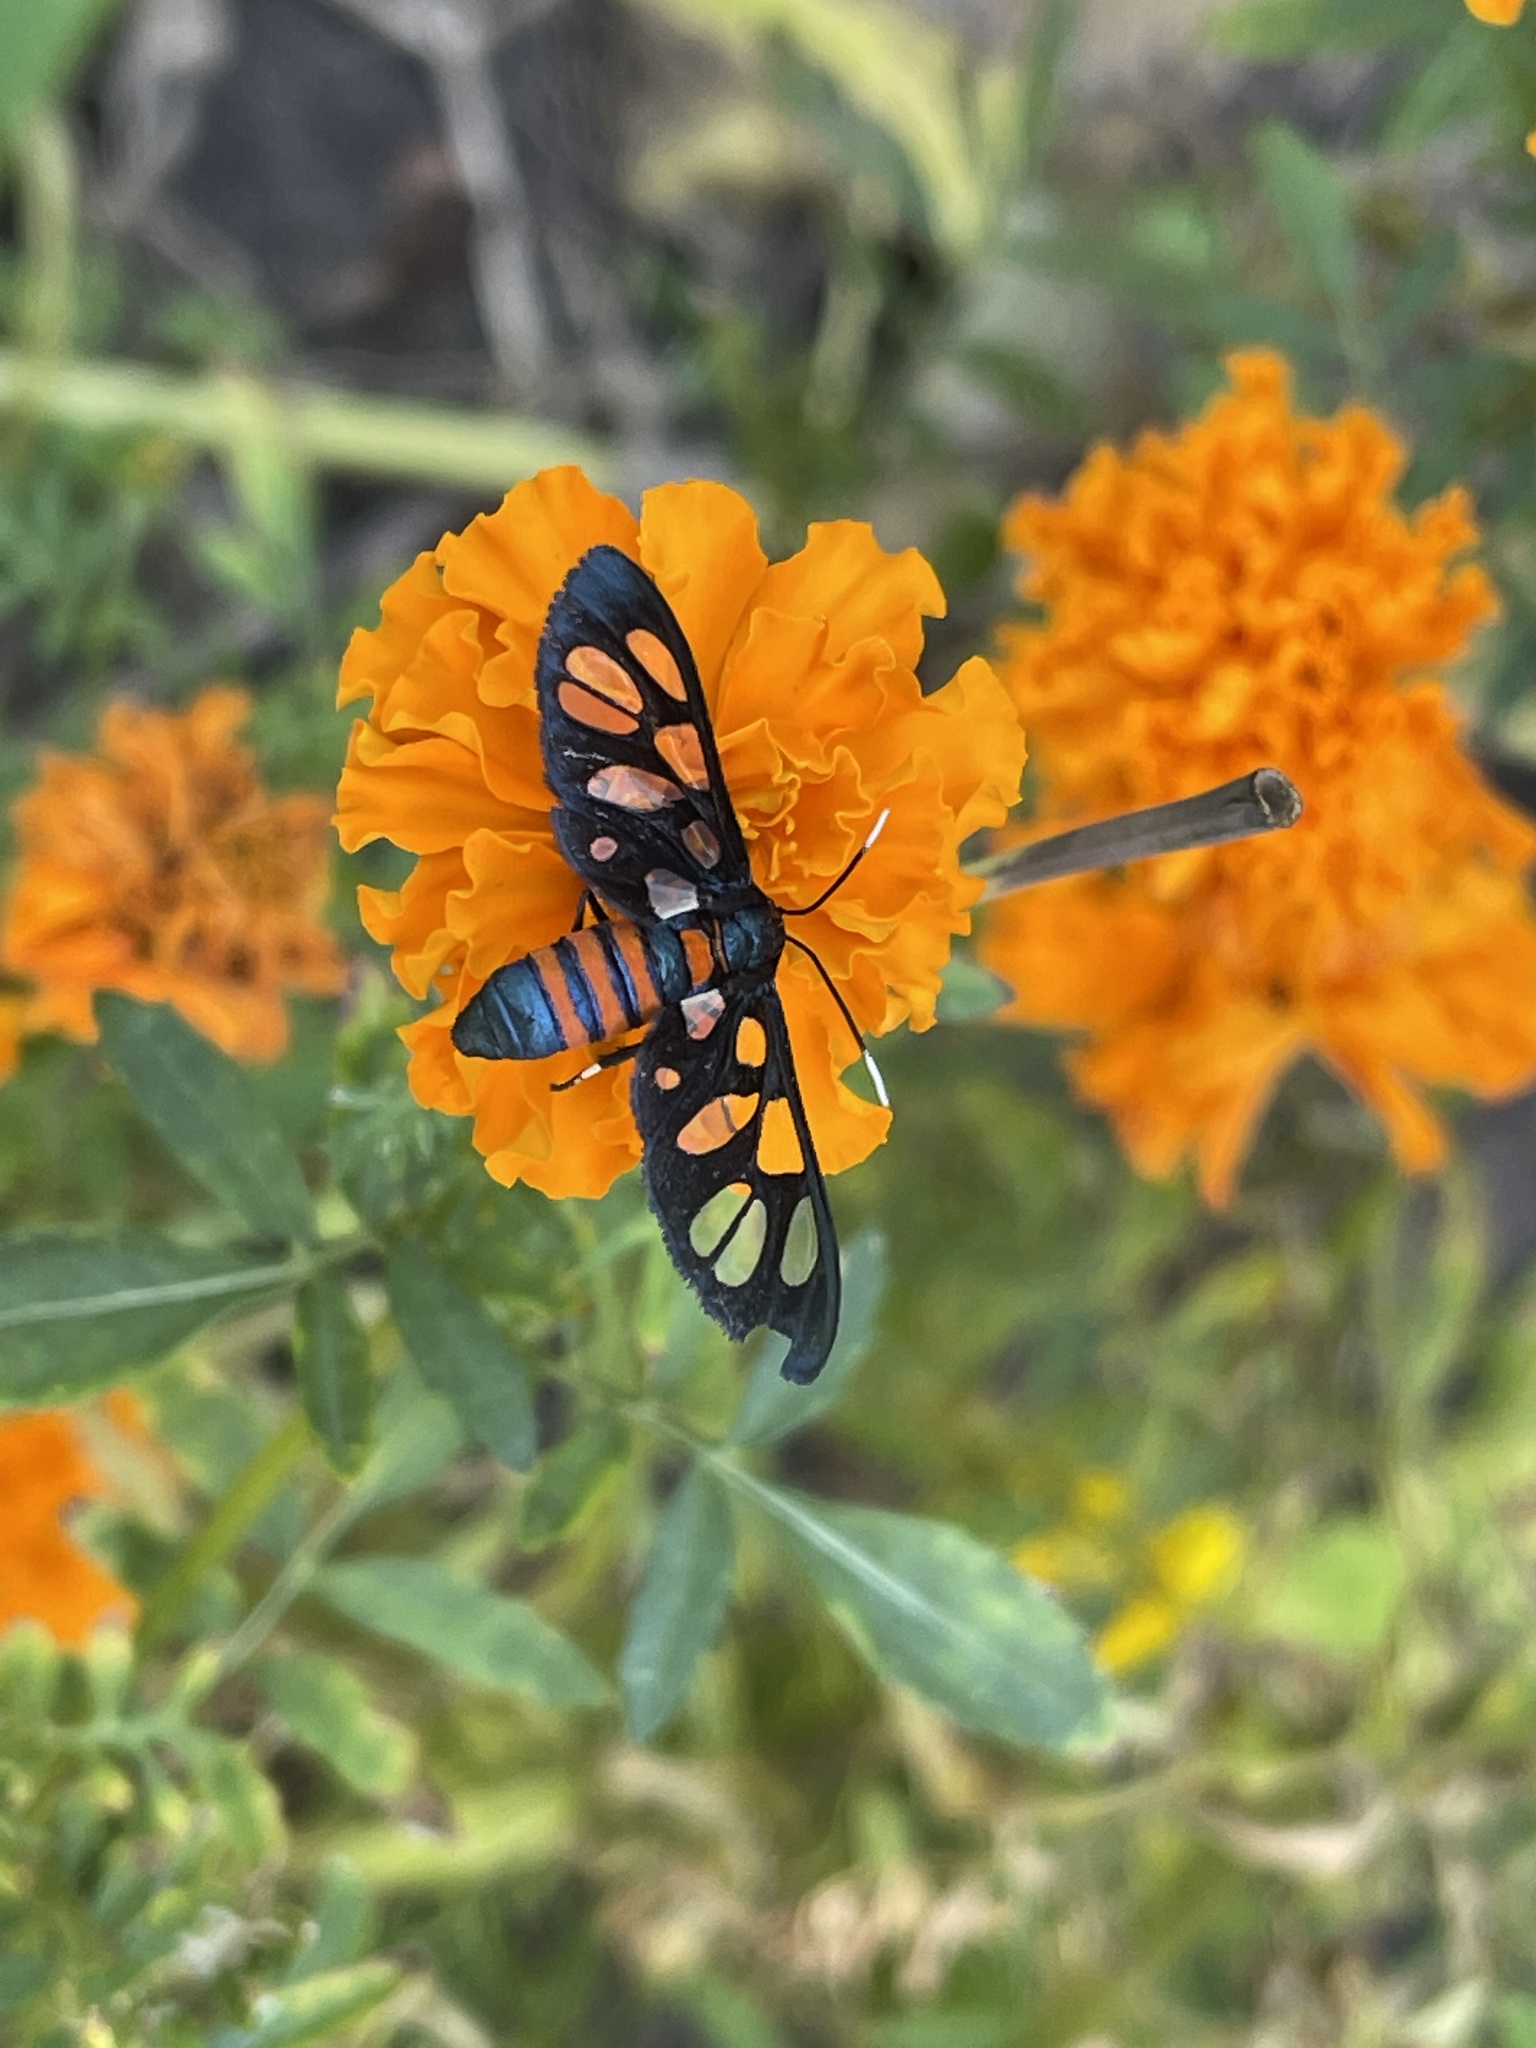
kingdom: Animalia
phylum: Arthropoda
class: Insecta
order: Lepidoptera
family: Erebidae
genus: Amata
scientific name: Amata cerbera
